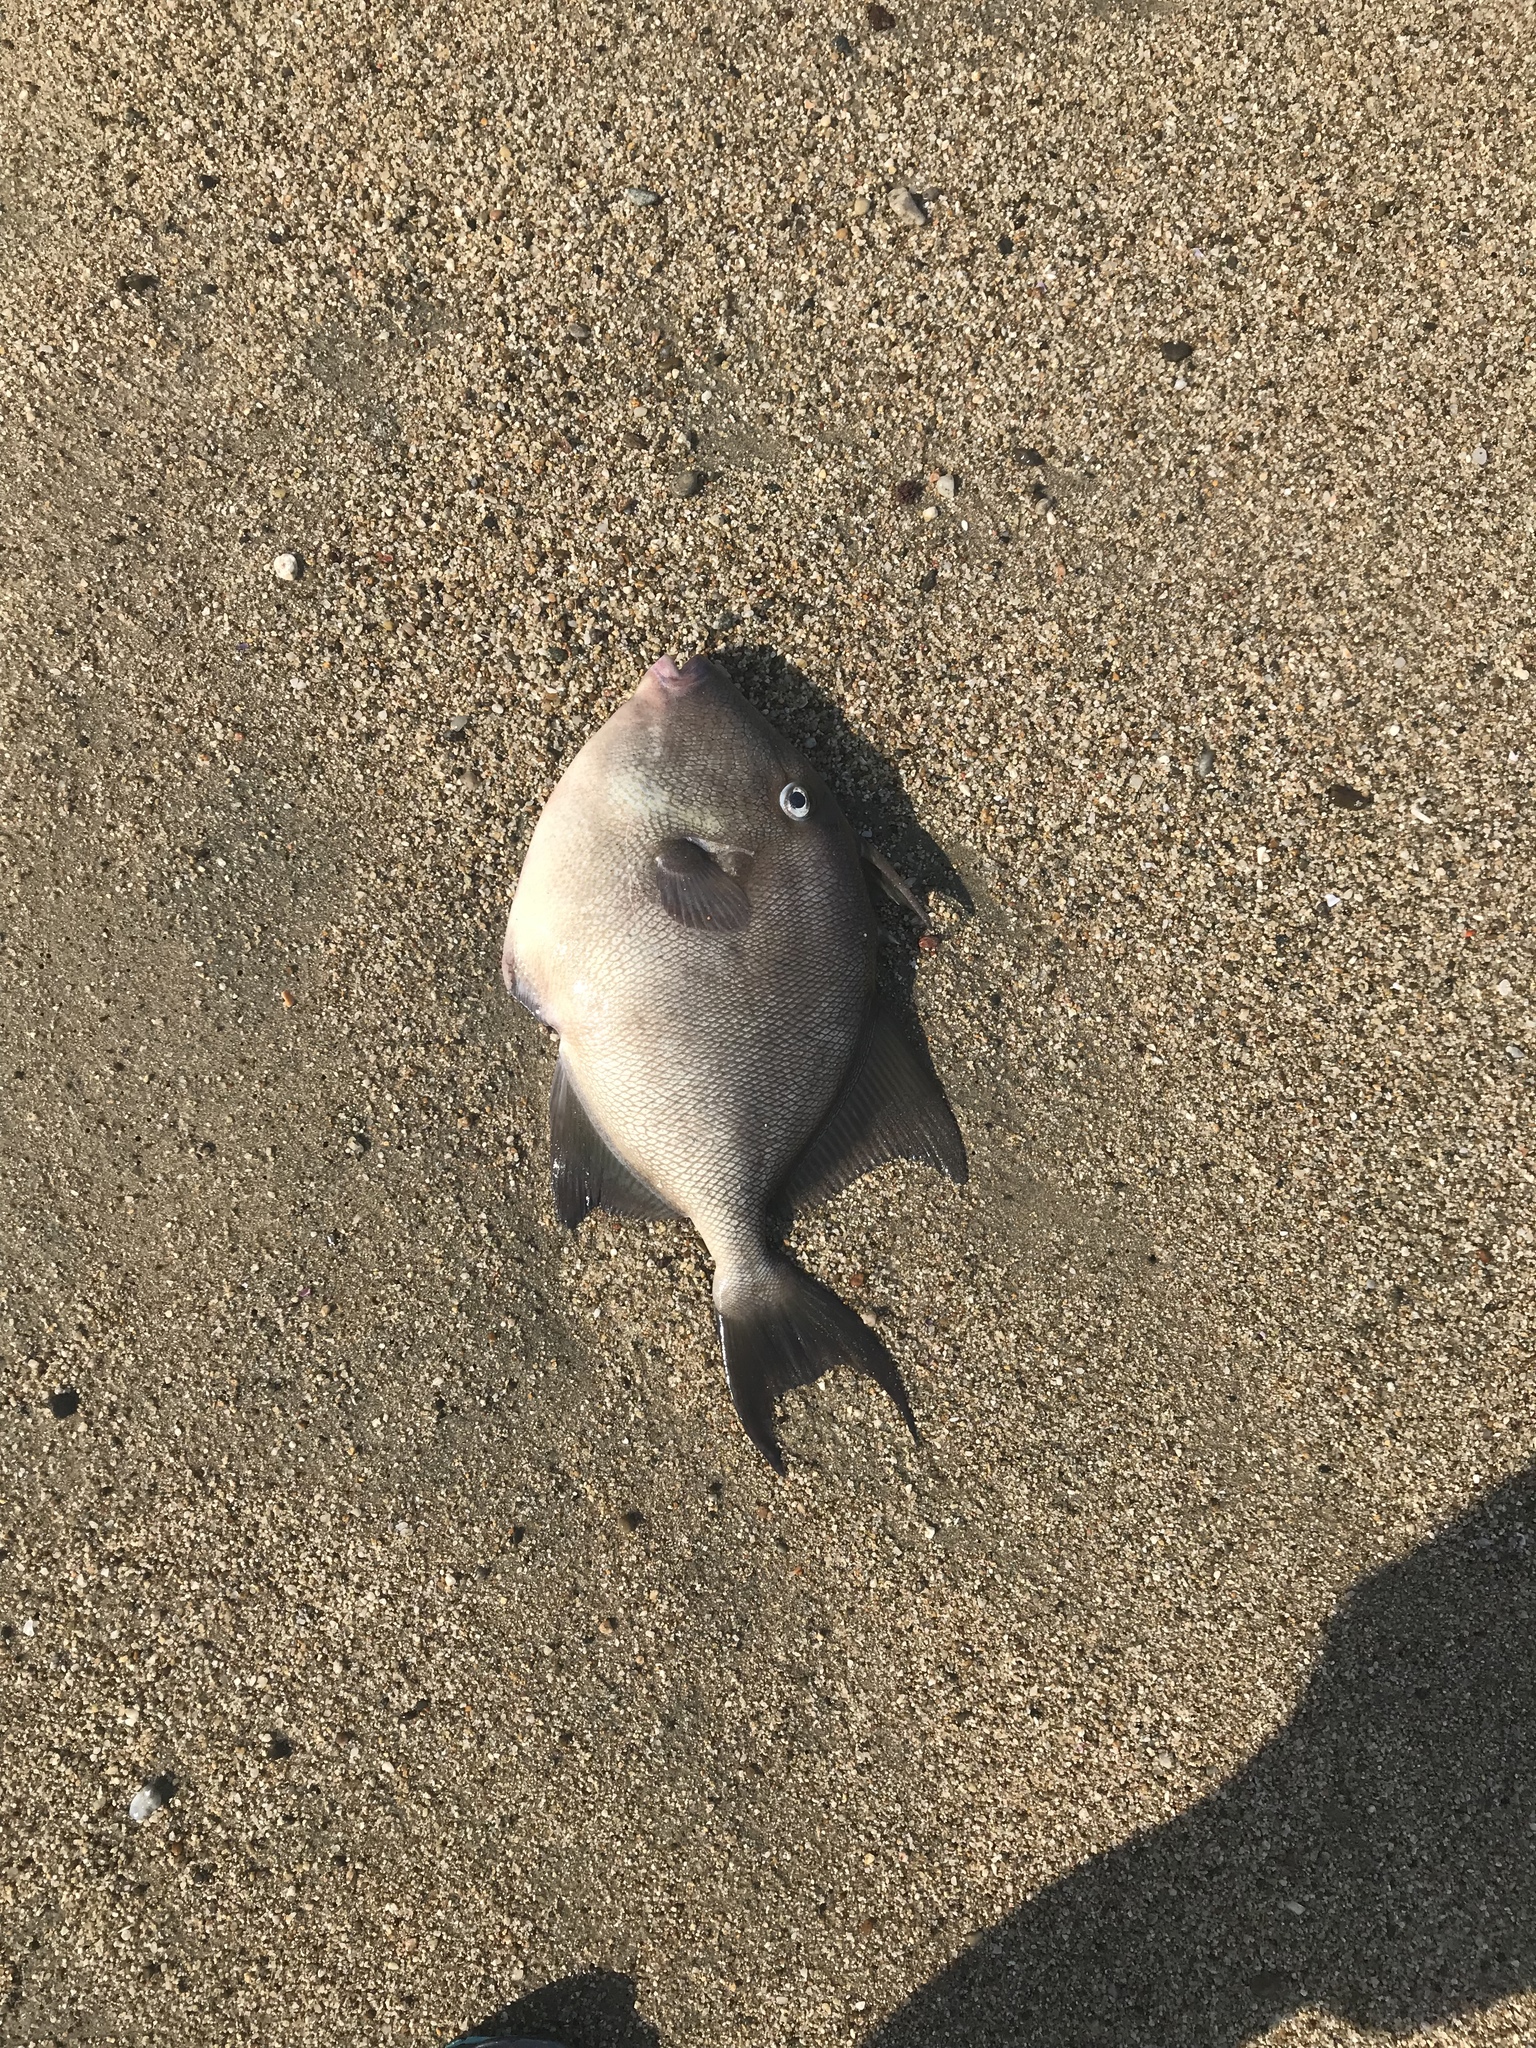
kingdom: Animalia
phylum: Chordata
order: Tetraodontiformes
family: Balistidae
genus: Balistes
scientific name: Balistes polylepis
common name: Finescale triggerfish
